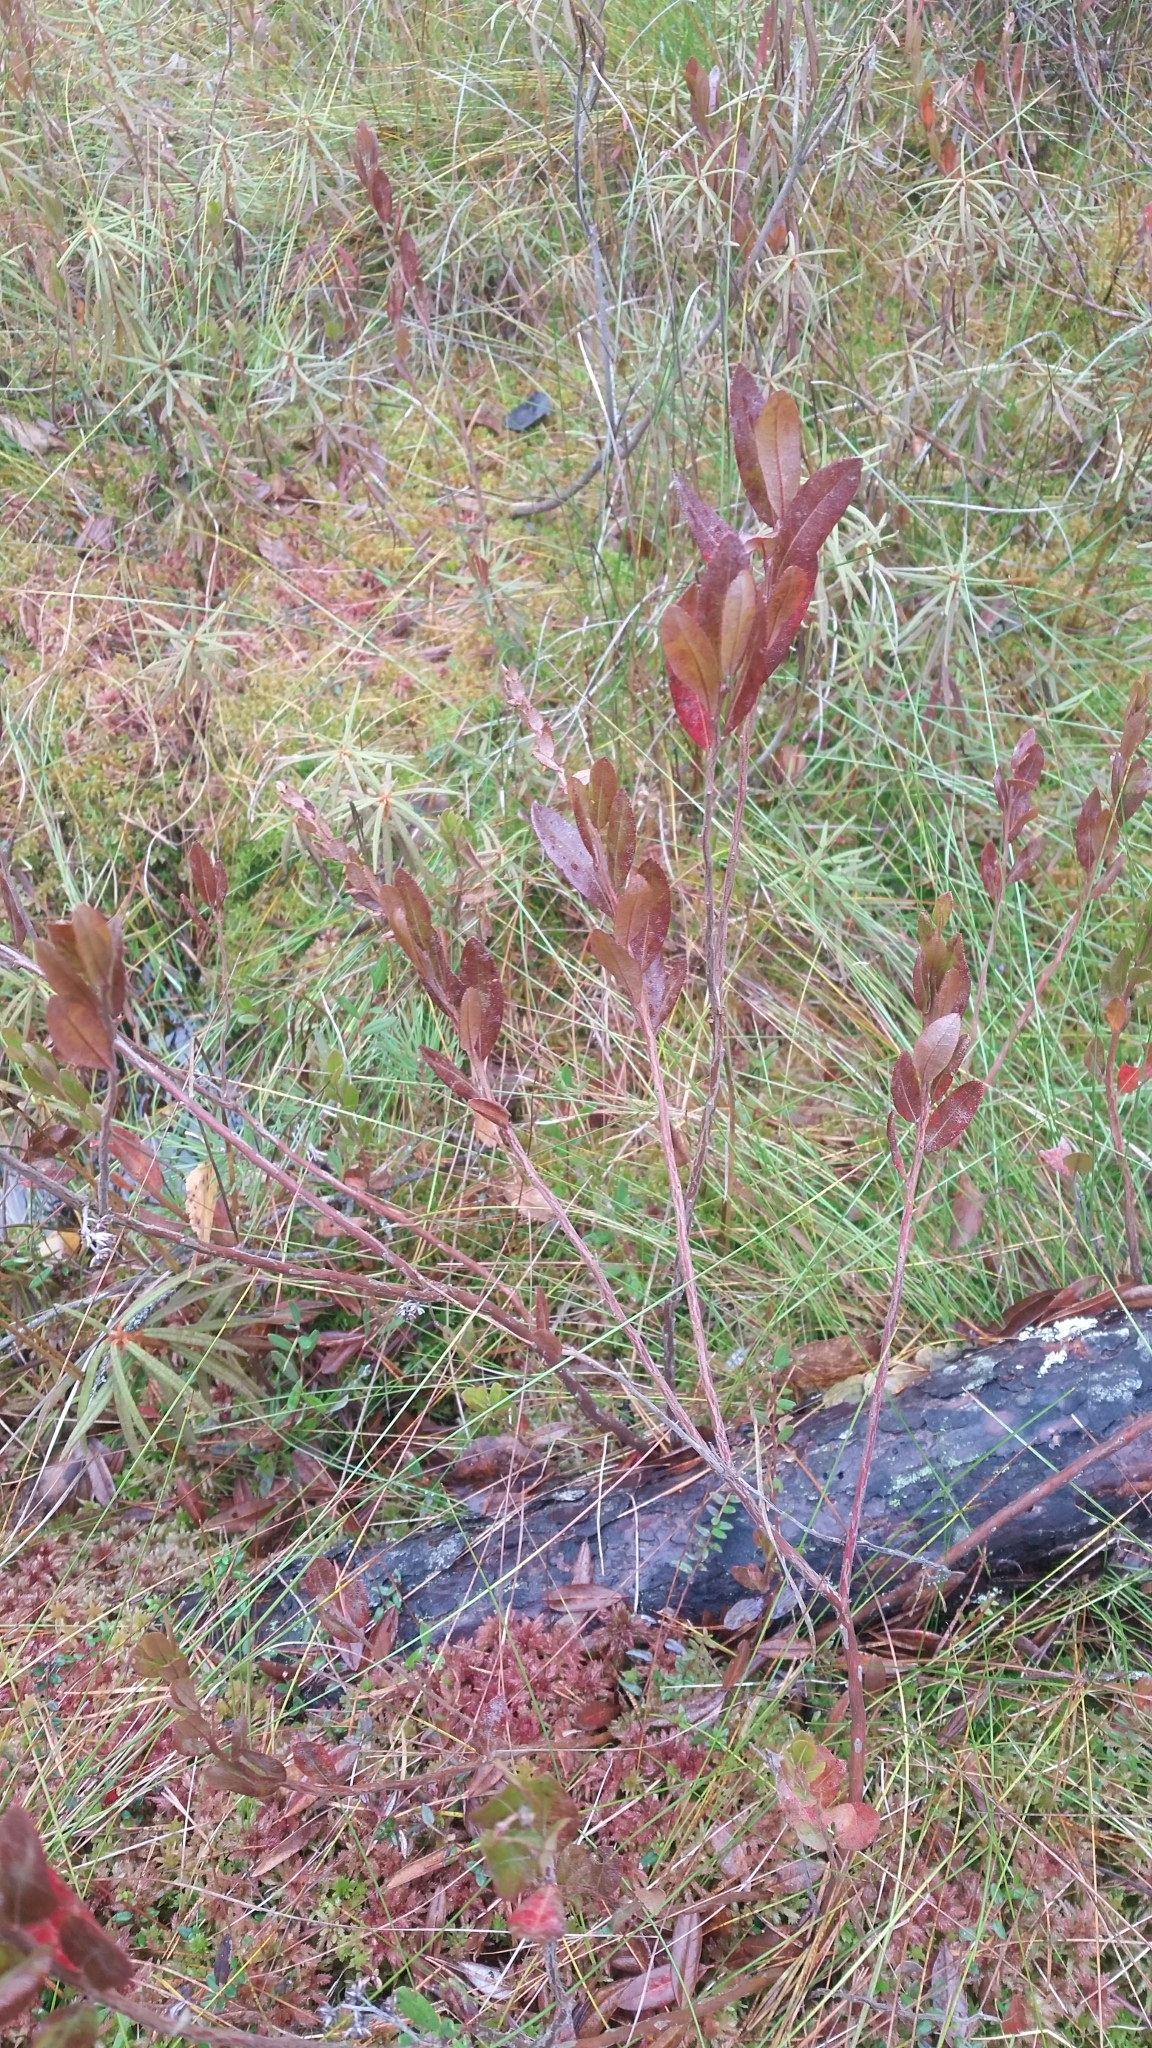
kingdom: Plantae
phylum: Tracheophyta
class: Magnoliopsida
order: Ericales
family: Ericaceae
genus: Chamaedaphne
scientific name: Chamaedaphne calyculata
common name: Leatherleaf
